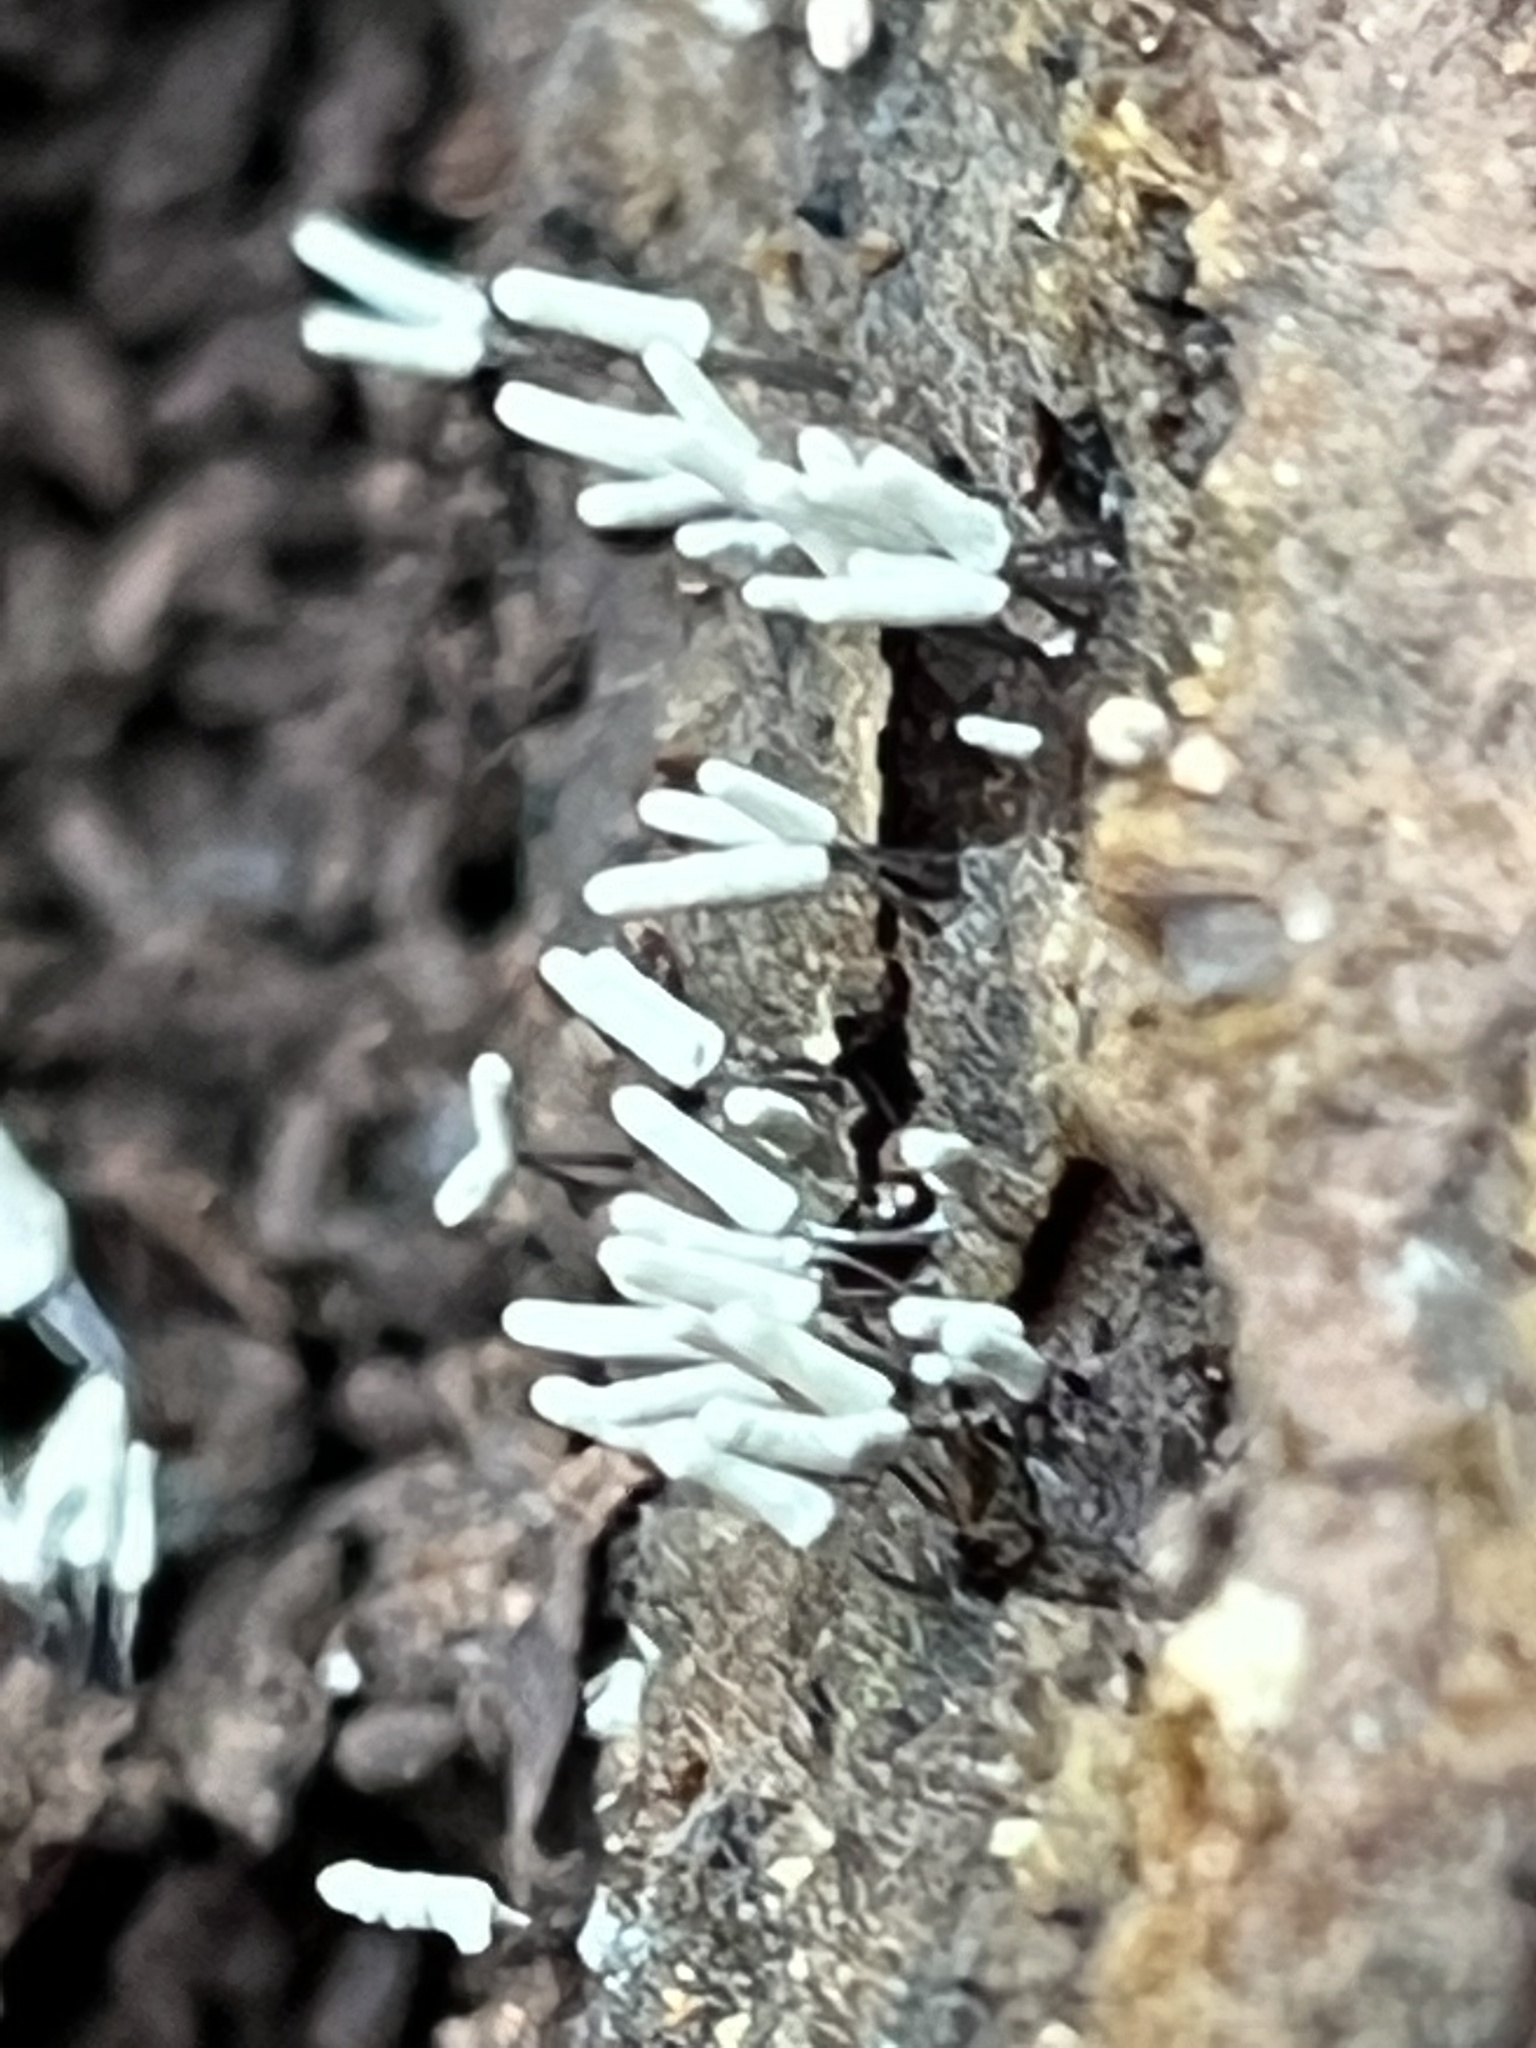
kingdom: Protozoa
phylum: Mycetozoa
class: Myxomycetes
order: Trichiales
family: Arcyriaceae
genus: Arcyria
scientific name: Arcyria cinerea
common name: White carnival candy slime mold
